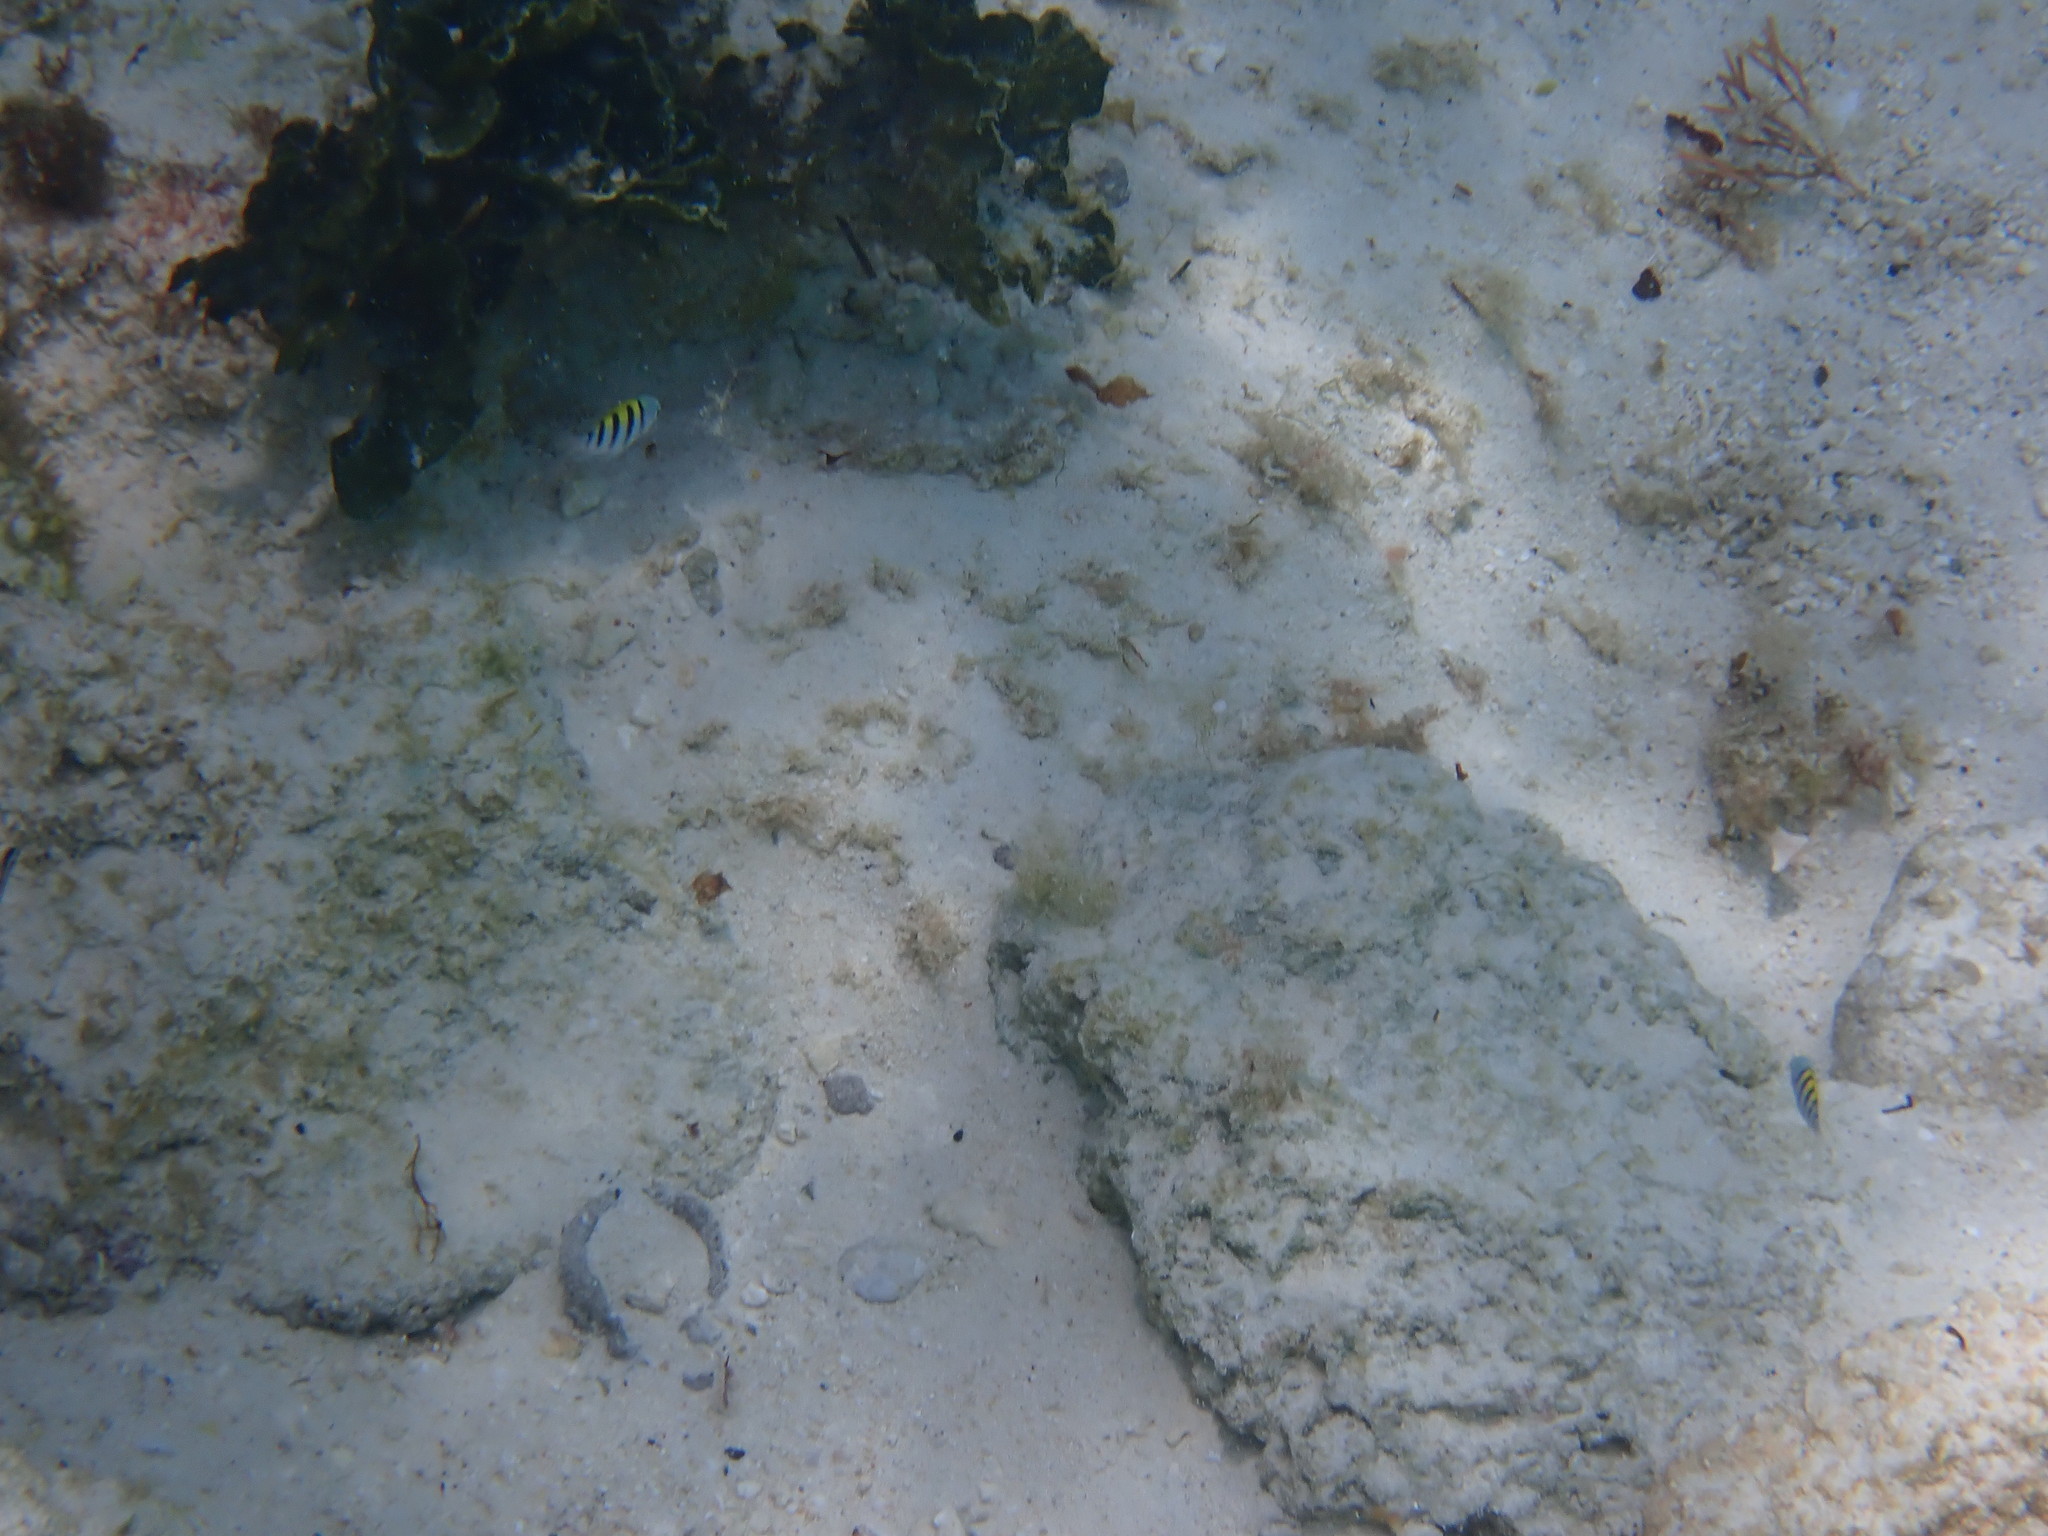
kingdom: Animalia
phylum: Chordata
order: Perciformes
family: Pomacentridae
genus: Abudefduf
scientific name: Abudefduf saxatilis
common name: Sergeant major
